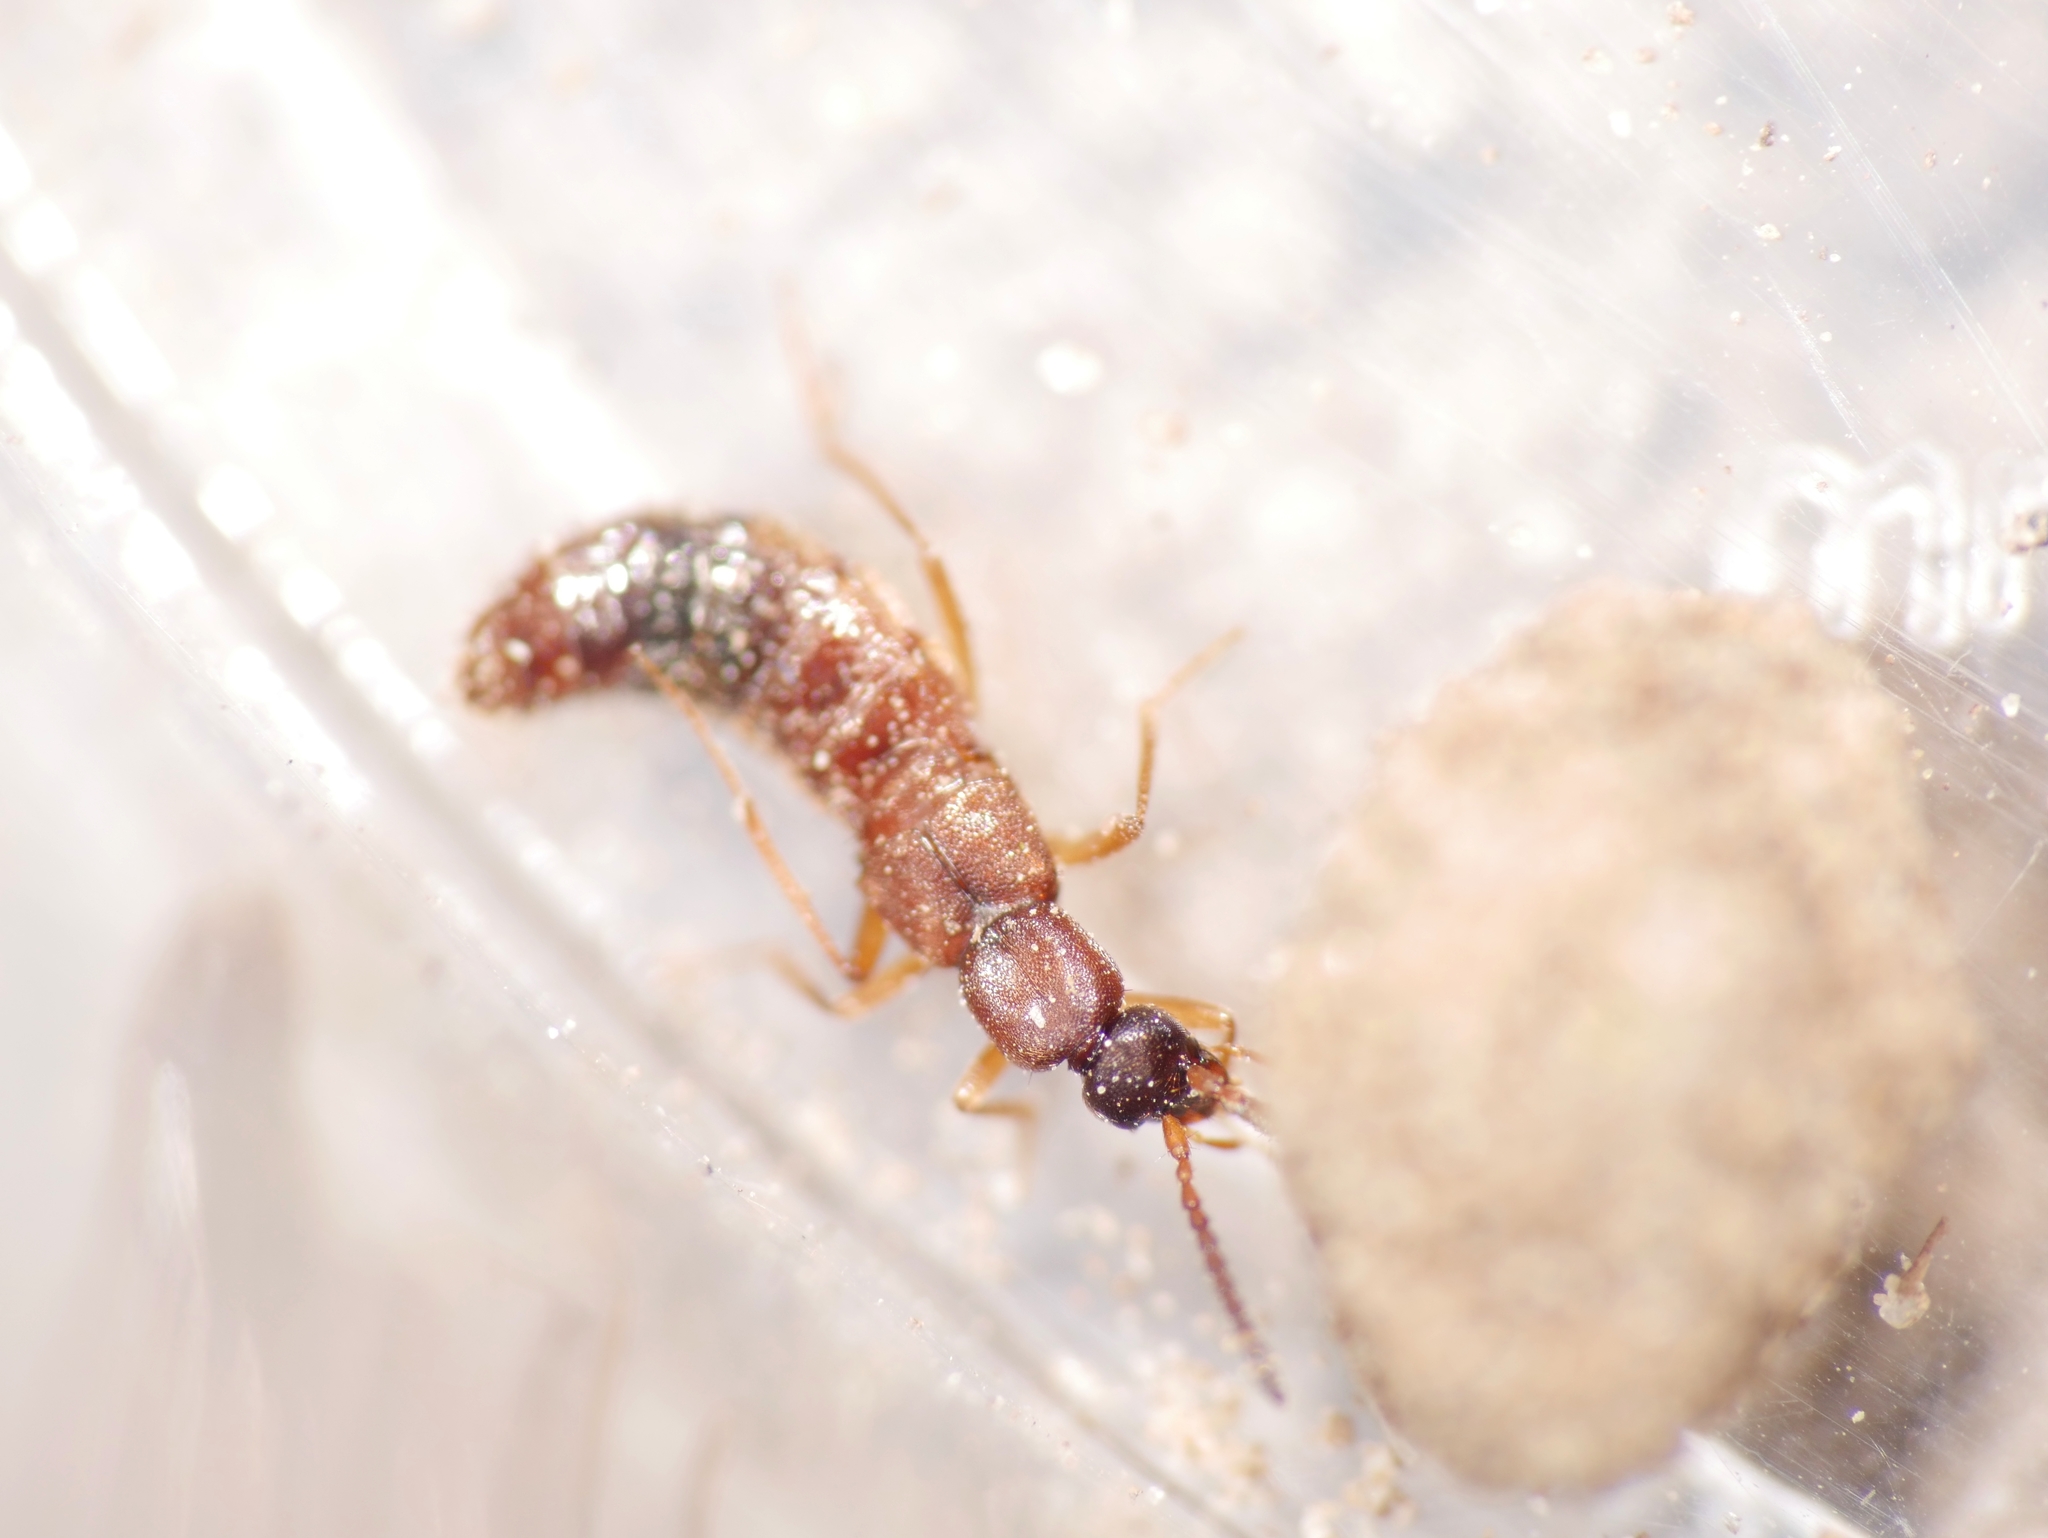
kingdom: Animalia
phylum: Arthropoda
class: Insecta
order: Coleoptera
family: Staphylinidae
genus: Drusilla
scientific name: Drusilla canaliculata
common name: Rove beetle
